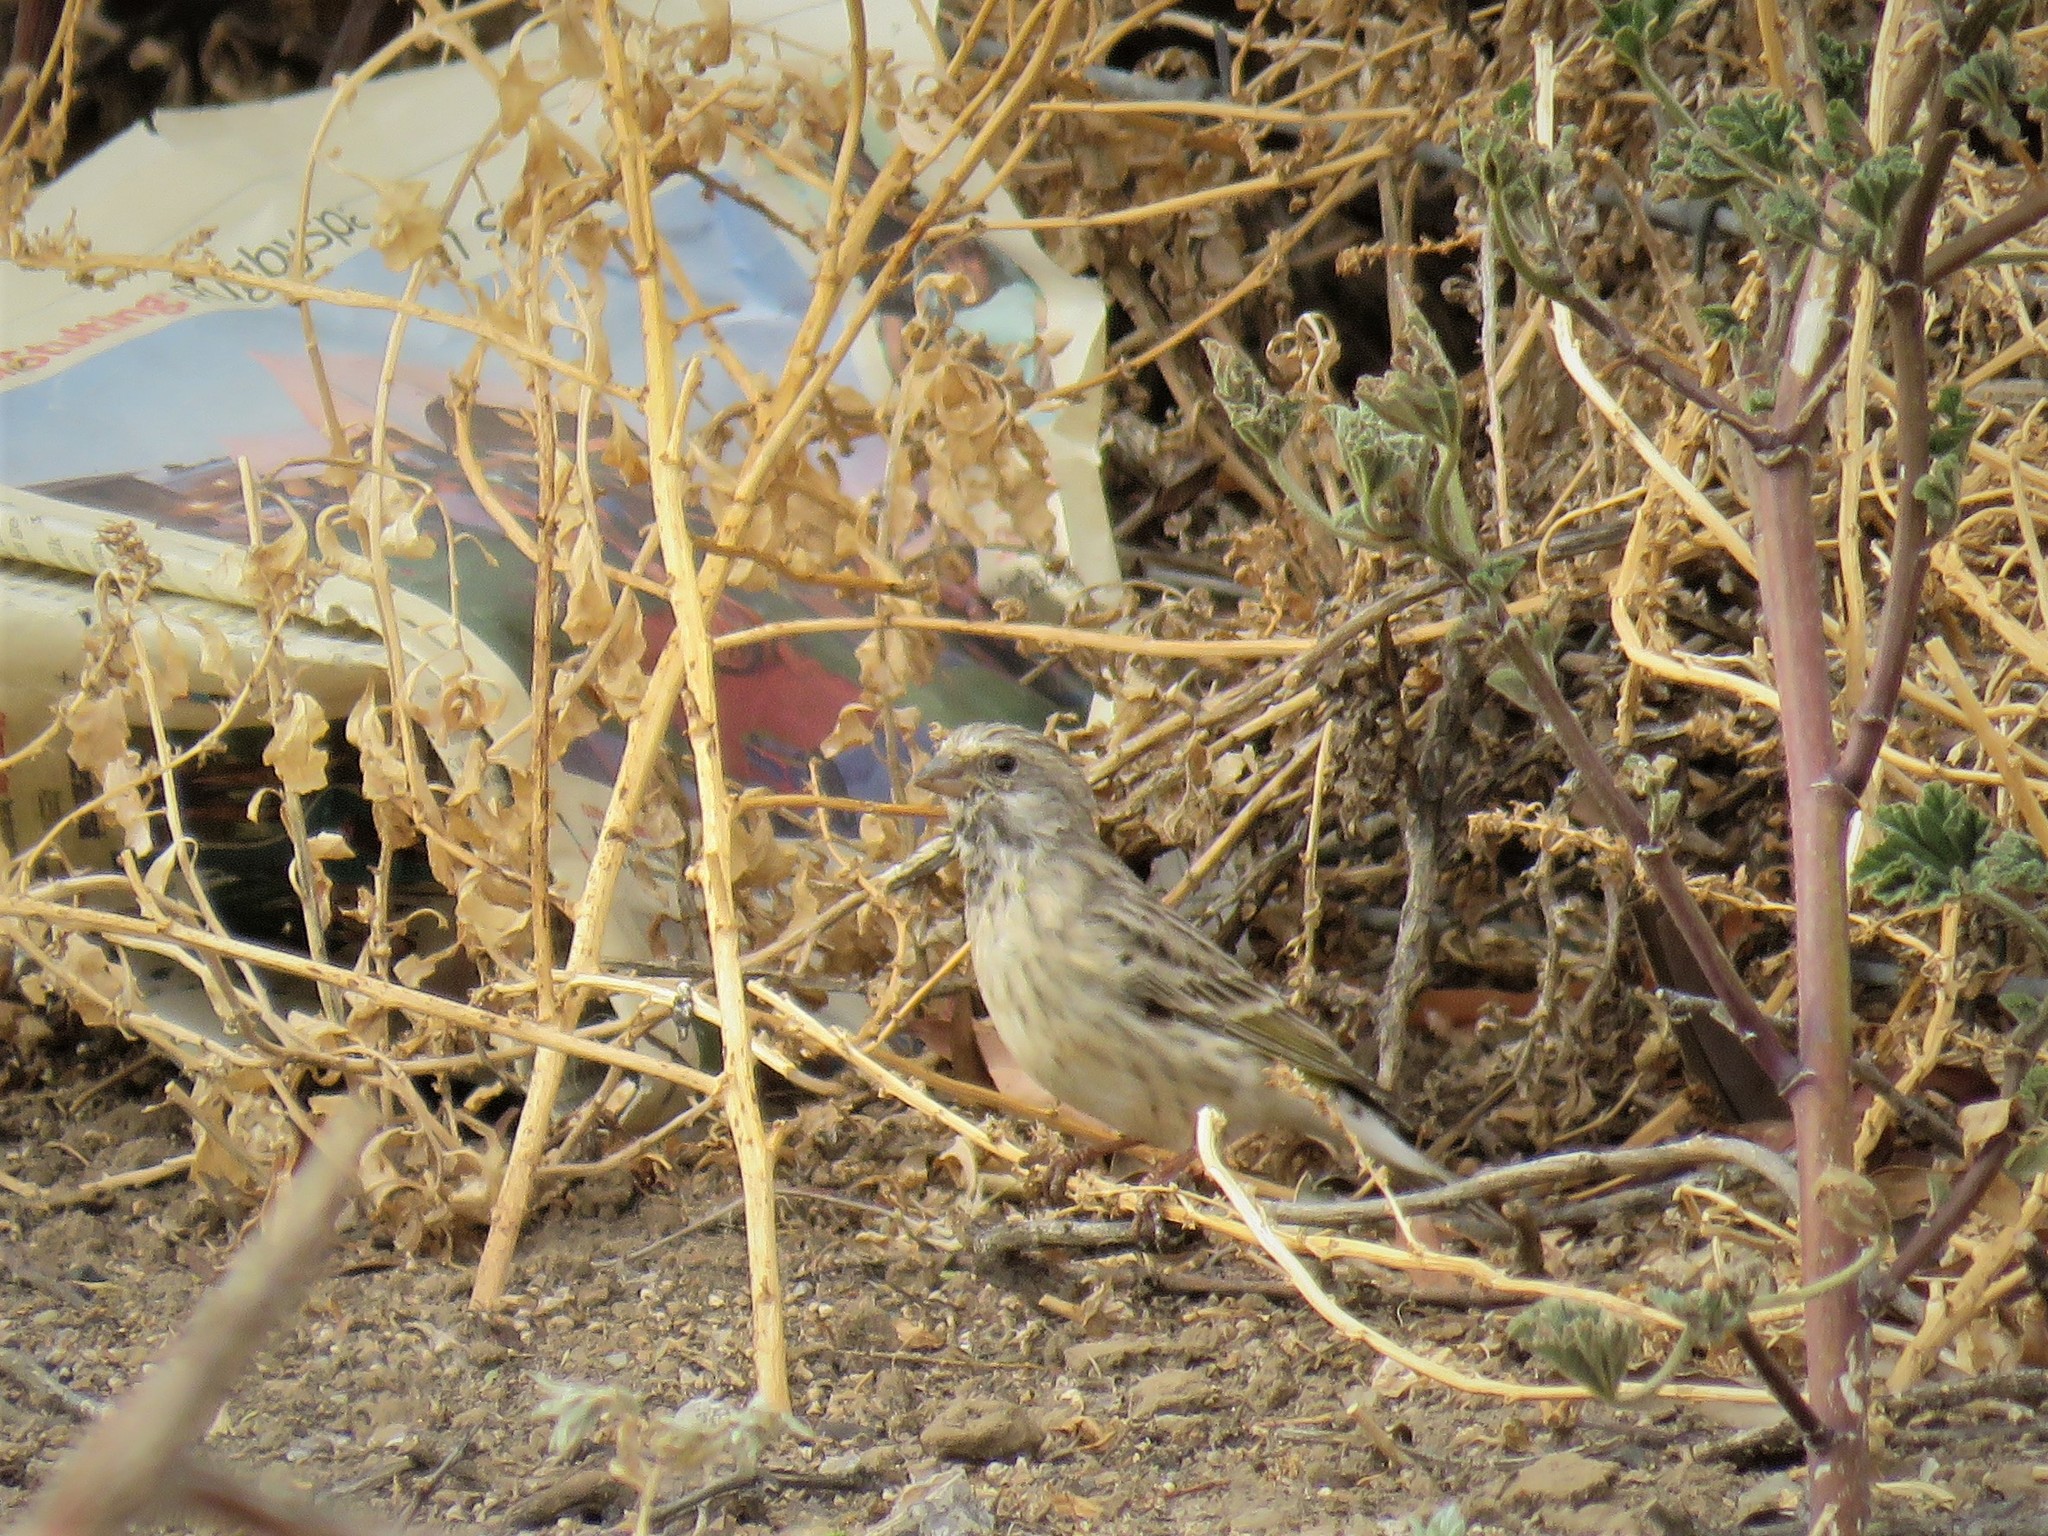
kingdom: Animalia
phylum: Chordata
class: Aves
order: Passeriformes
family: Fringillidae
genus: Crithagra
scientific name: Crithagra atrogularis
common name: Black-throated canary
